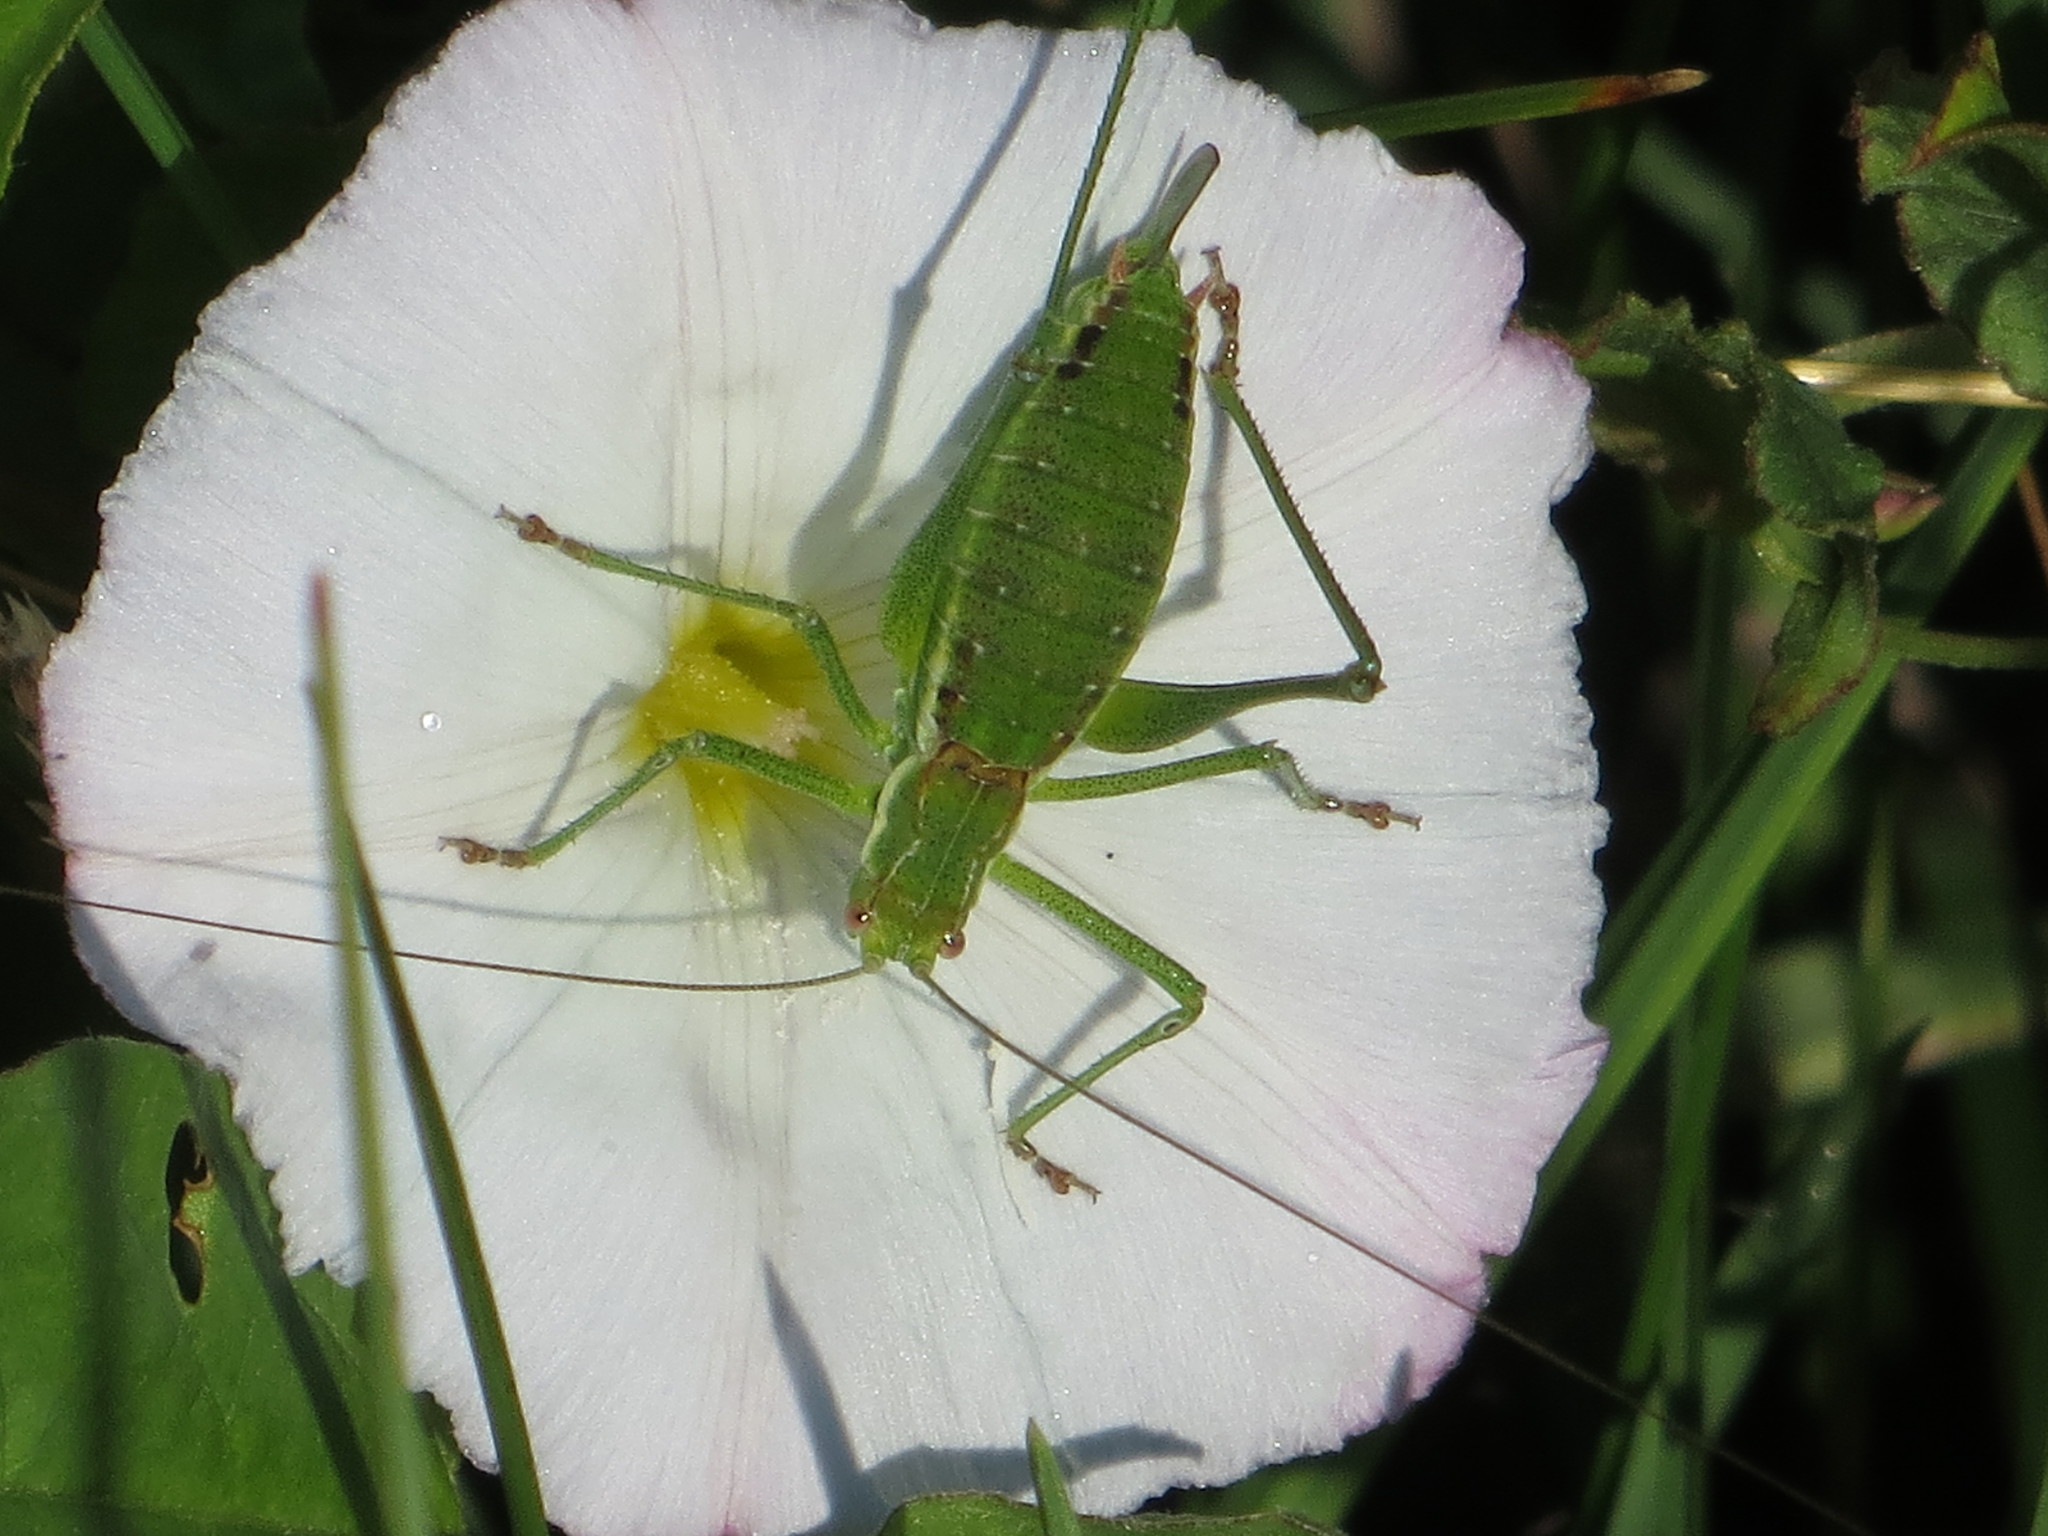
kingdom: Animalia
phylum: Arthropoda
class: Insecta
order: Orthoptera
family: Tettigoniidae
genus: Leptophyes
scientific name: Leptophyes albovittata
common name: Striped bush-cricket
